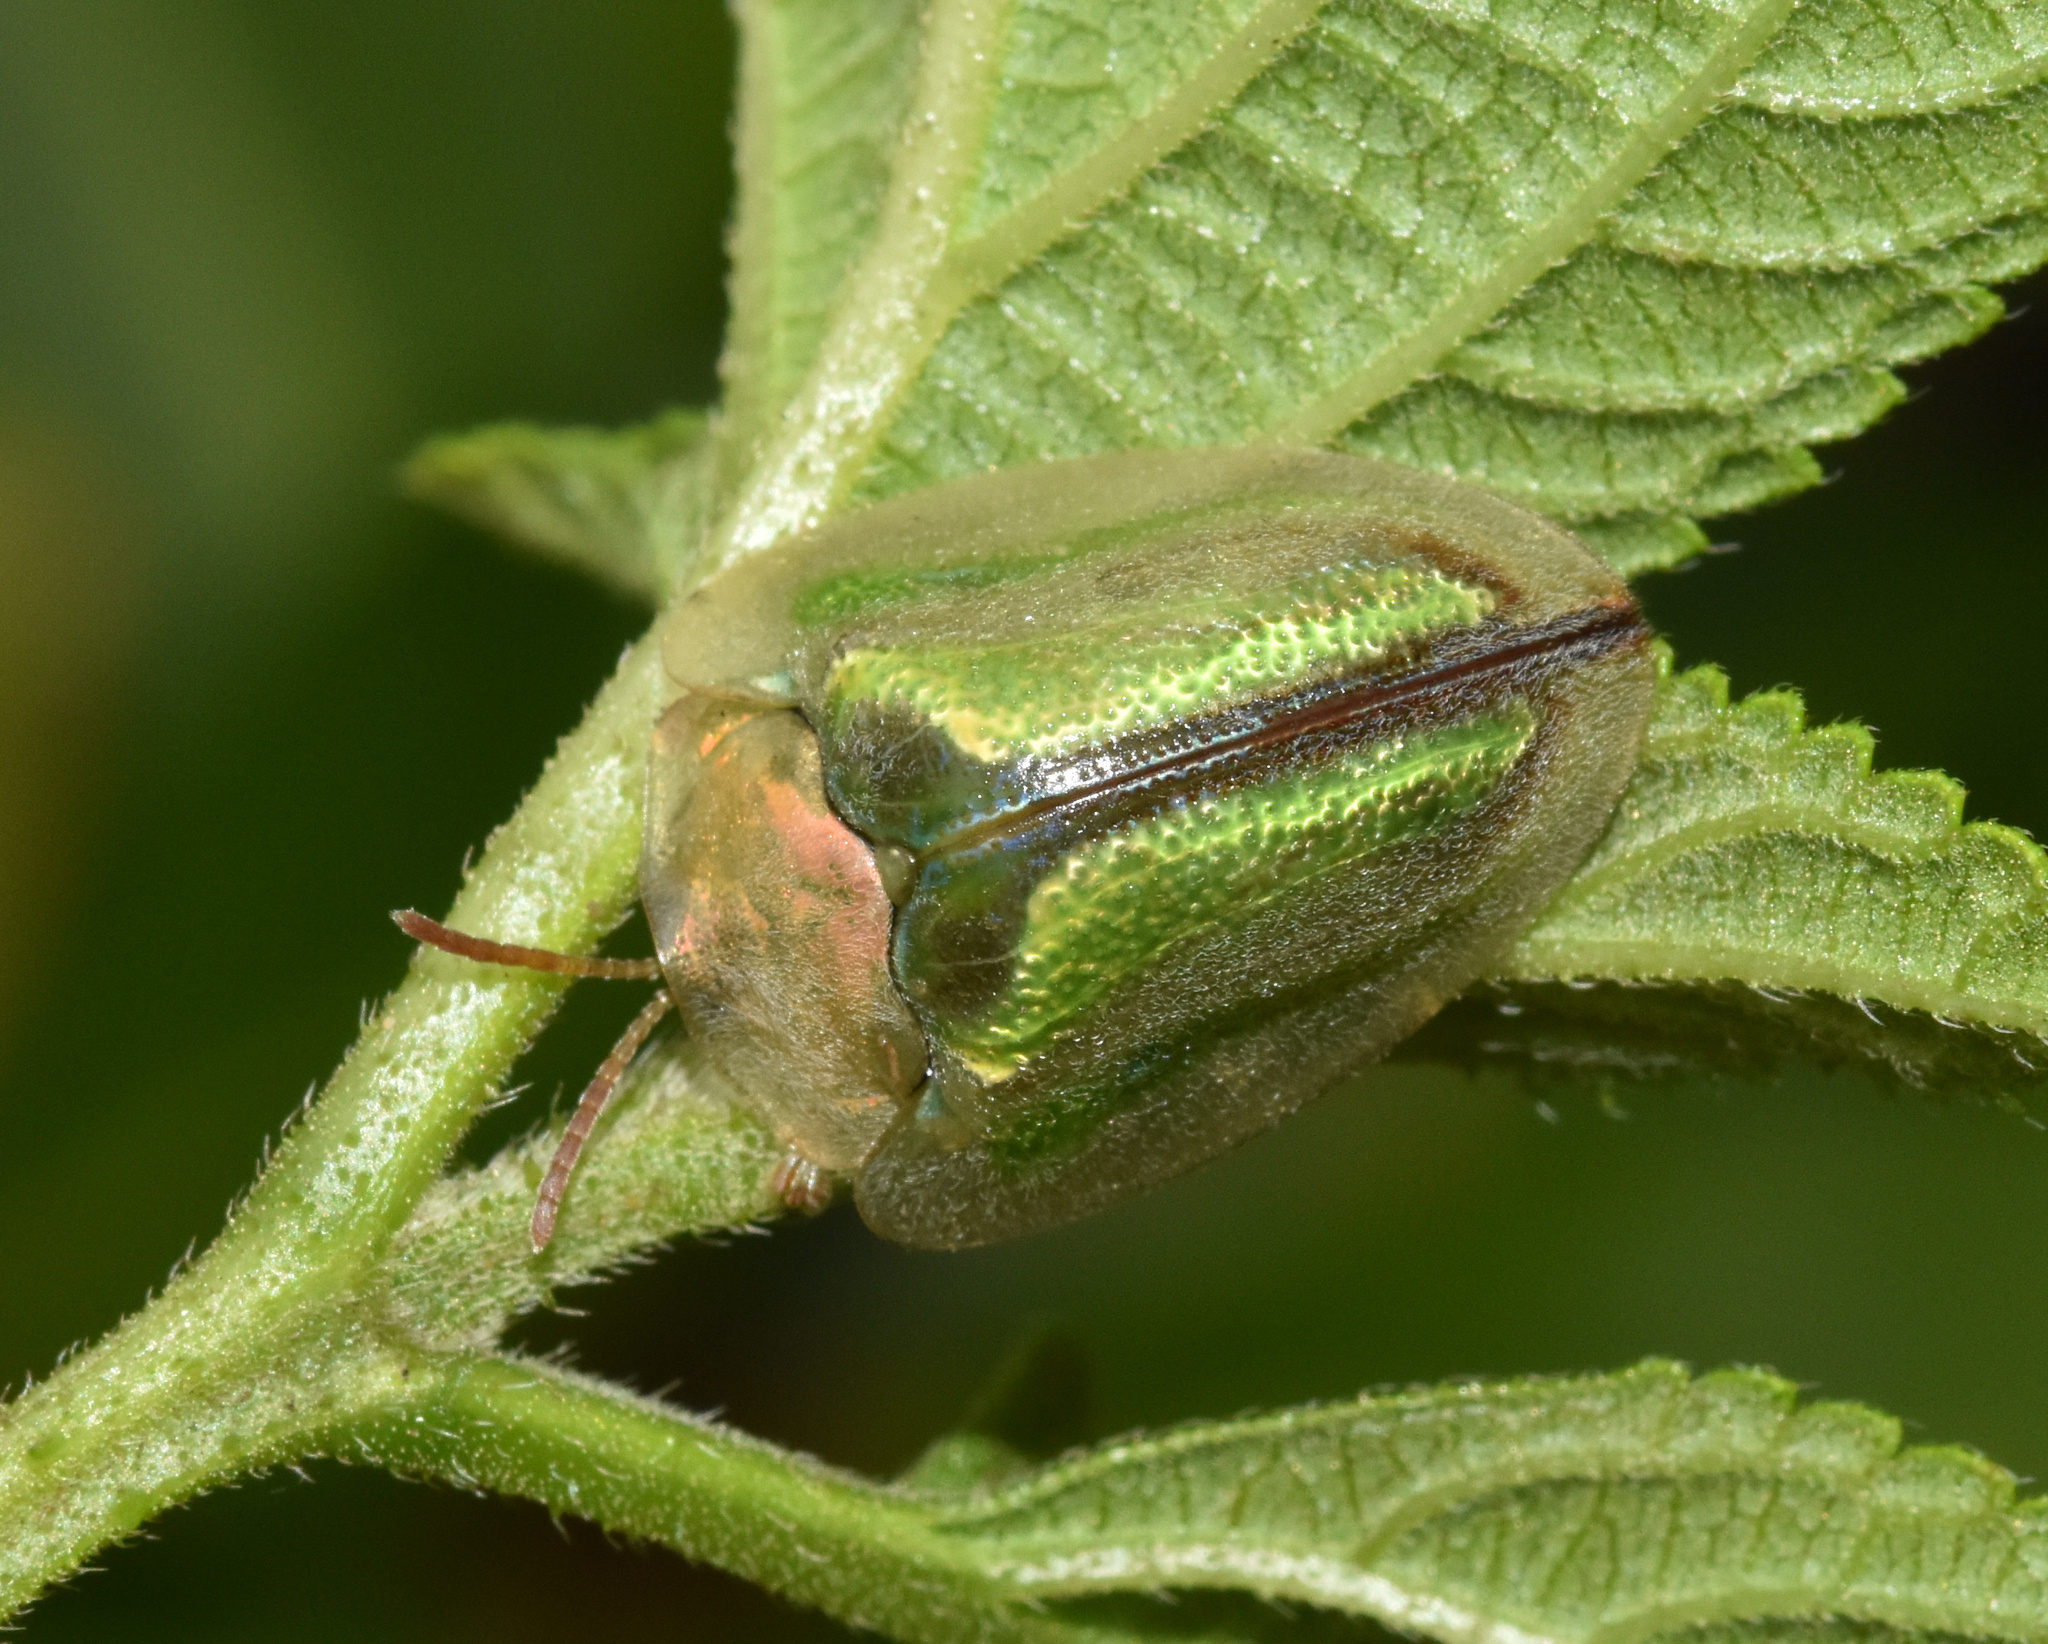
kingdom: Animalia
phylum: Arthropoda
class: Insecta
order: Coleoptera
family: Chrysomelidae
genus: Basipta
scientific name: Basipta stolida
